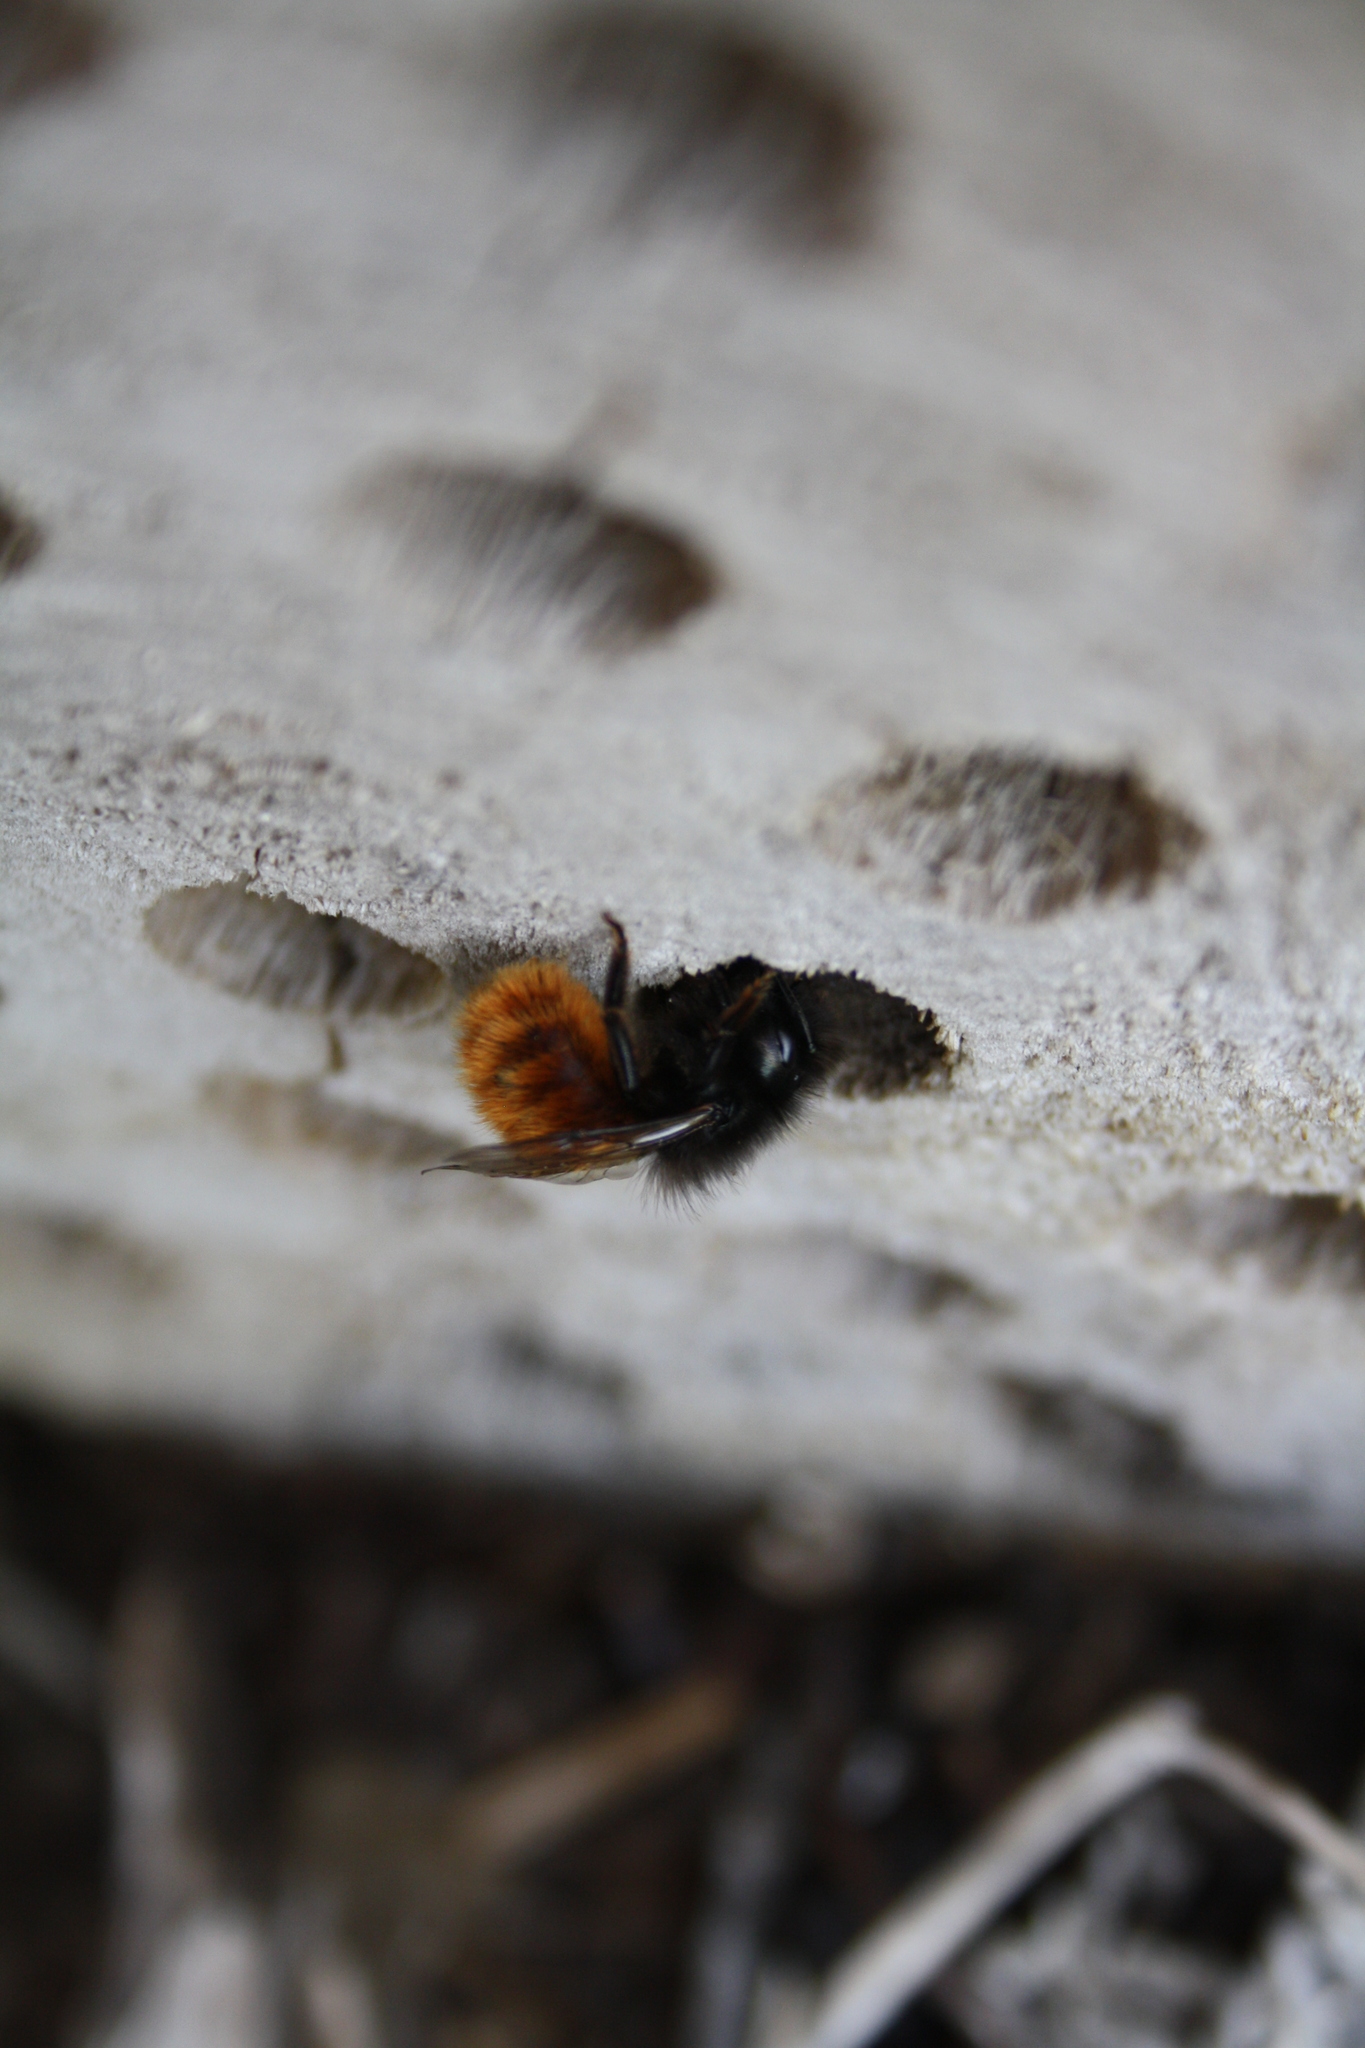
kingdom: Animalia
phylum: Arthropoda
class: Insecta
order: Hymenoptera
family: Megachilidae
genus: Osmia
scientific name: Osmia cornuta
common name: Mason bee
